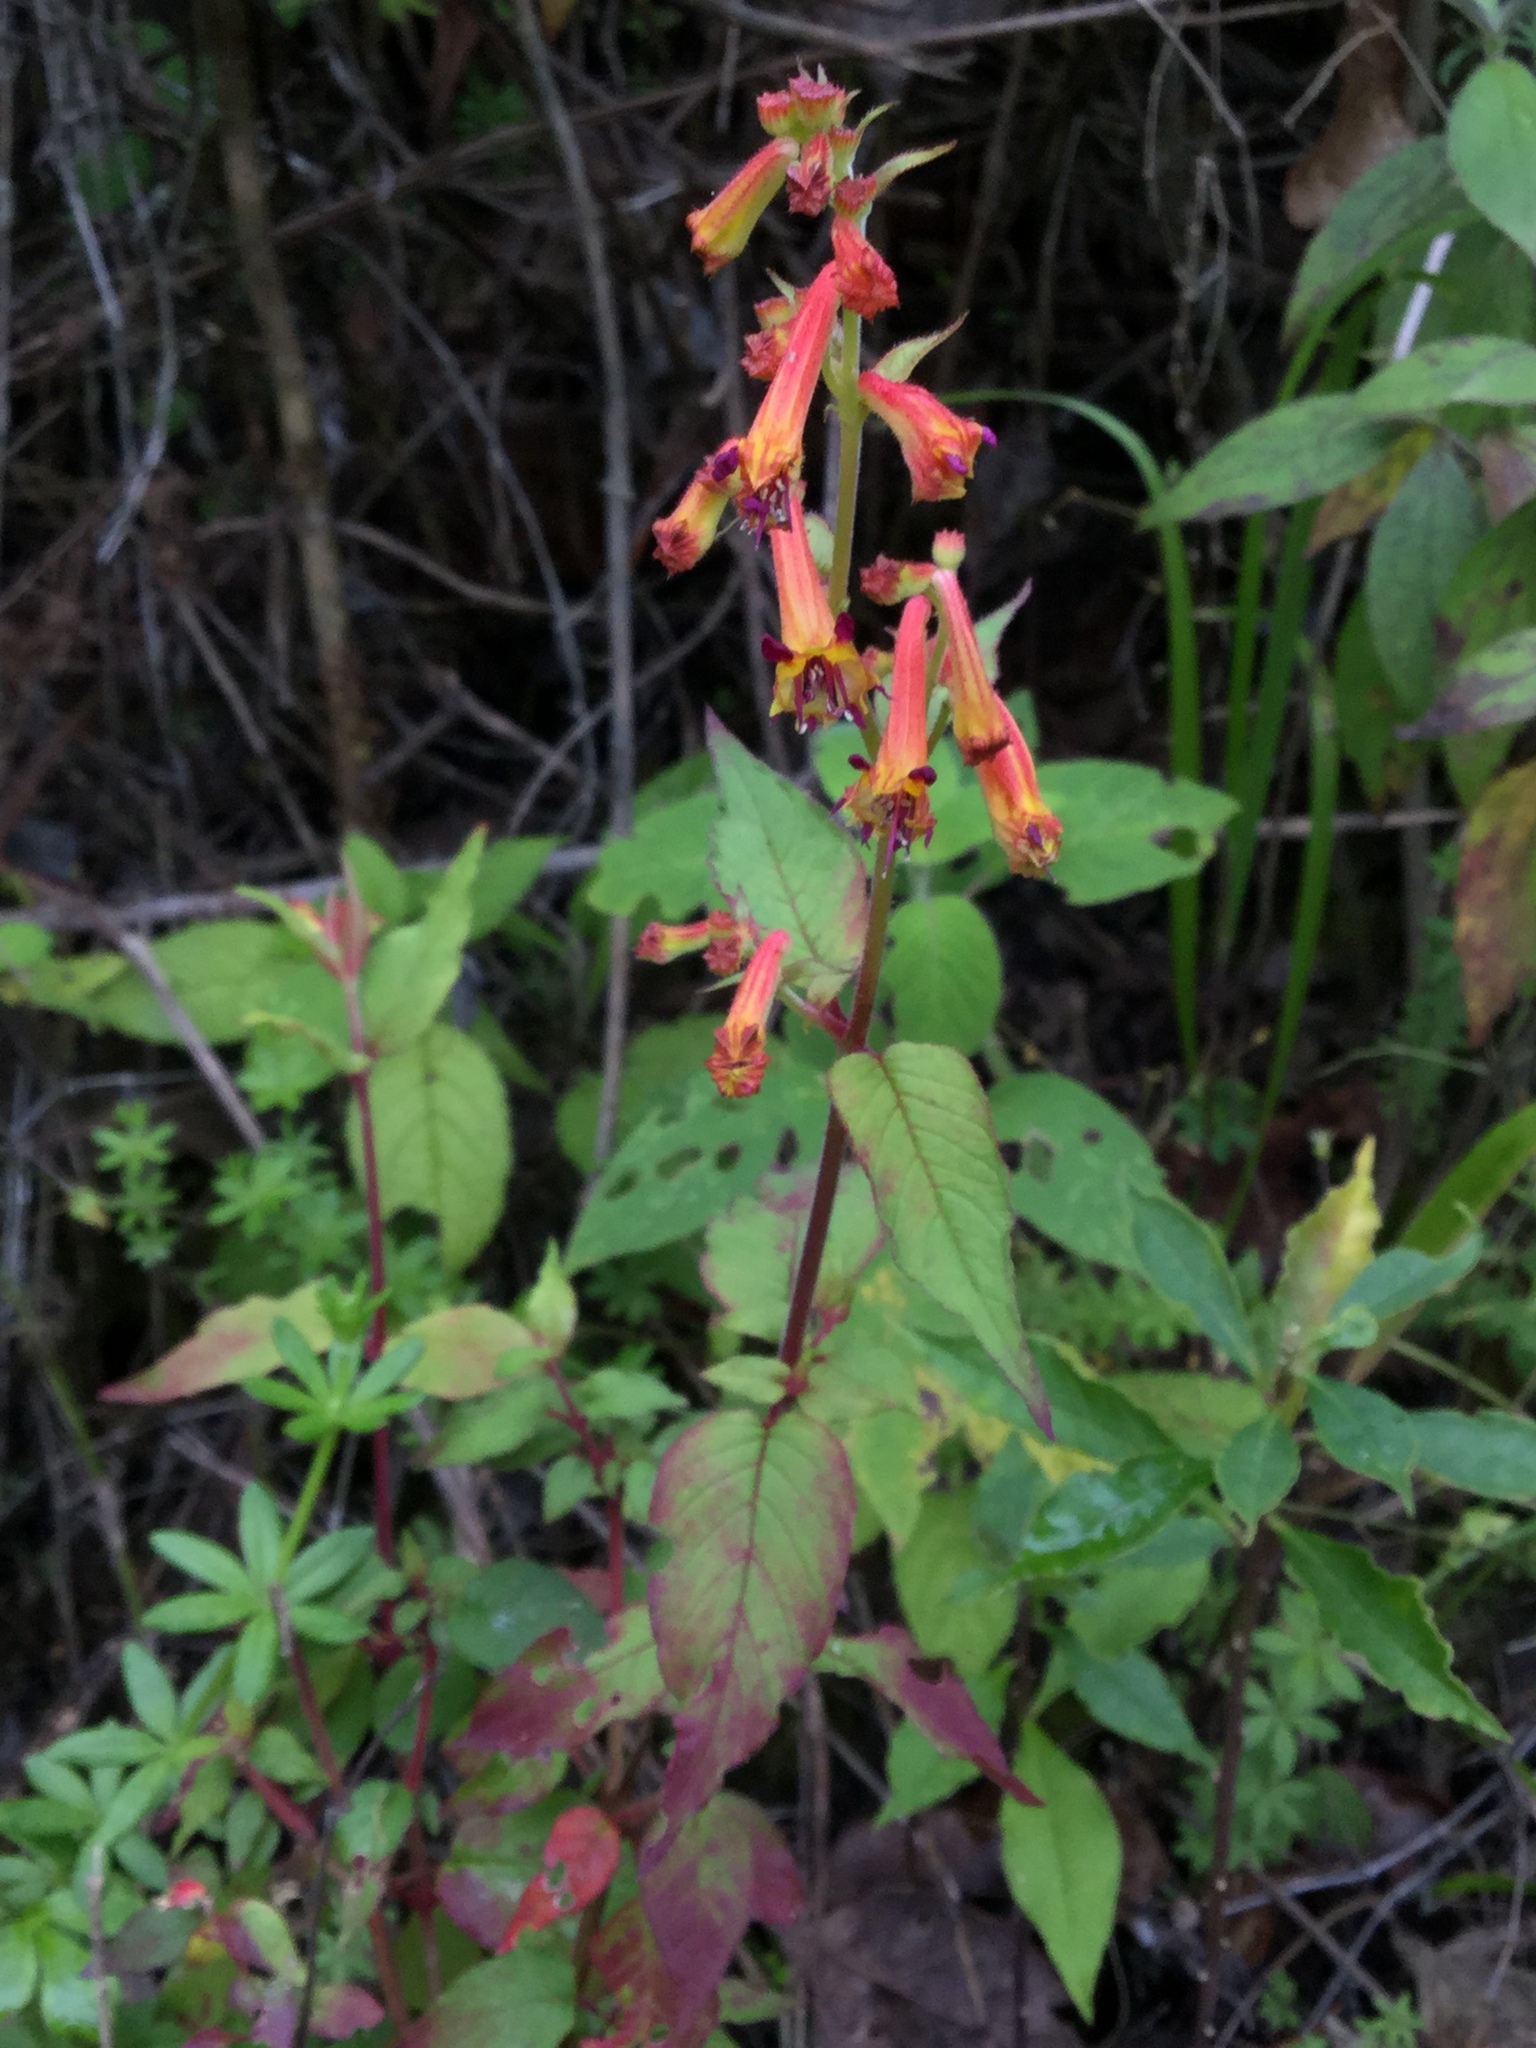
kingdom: Plantae
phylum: Tracheophyta
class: Magnoliopsida
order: Myrtales
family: Lythraceae
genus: Cuphea
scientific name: Cuphea cyanea
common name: Black-eyed cuphea
